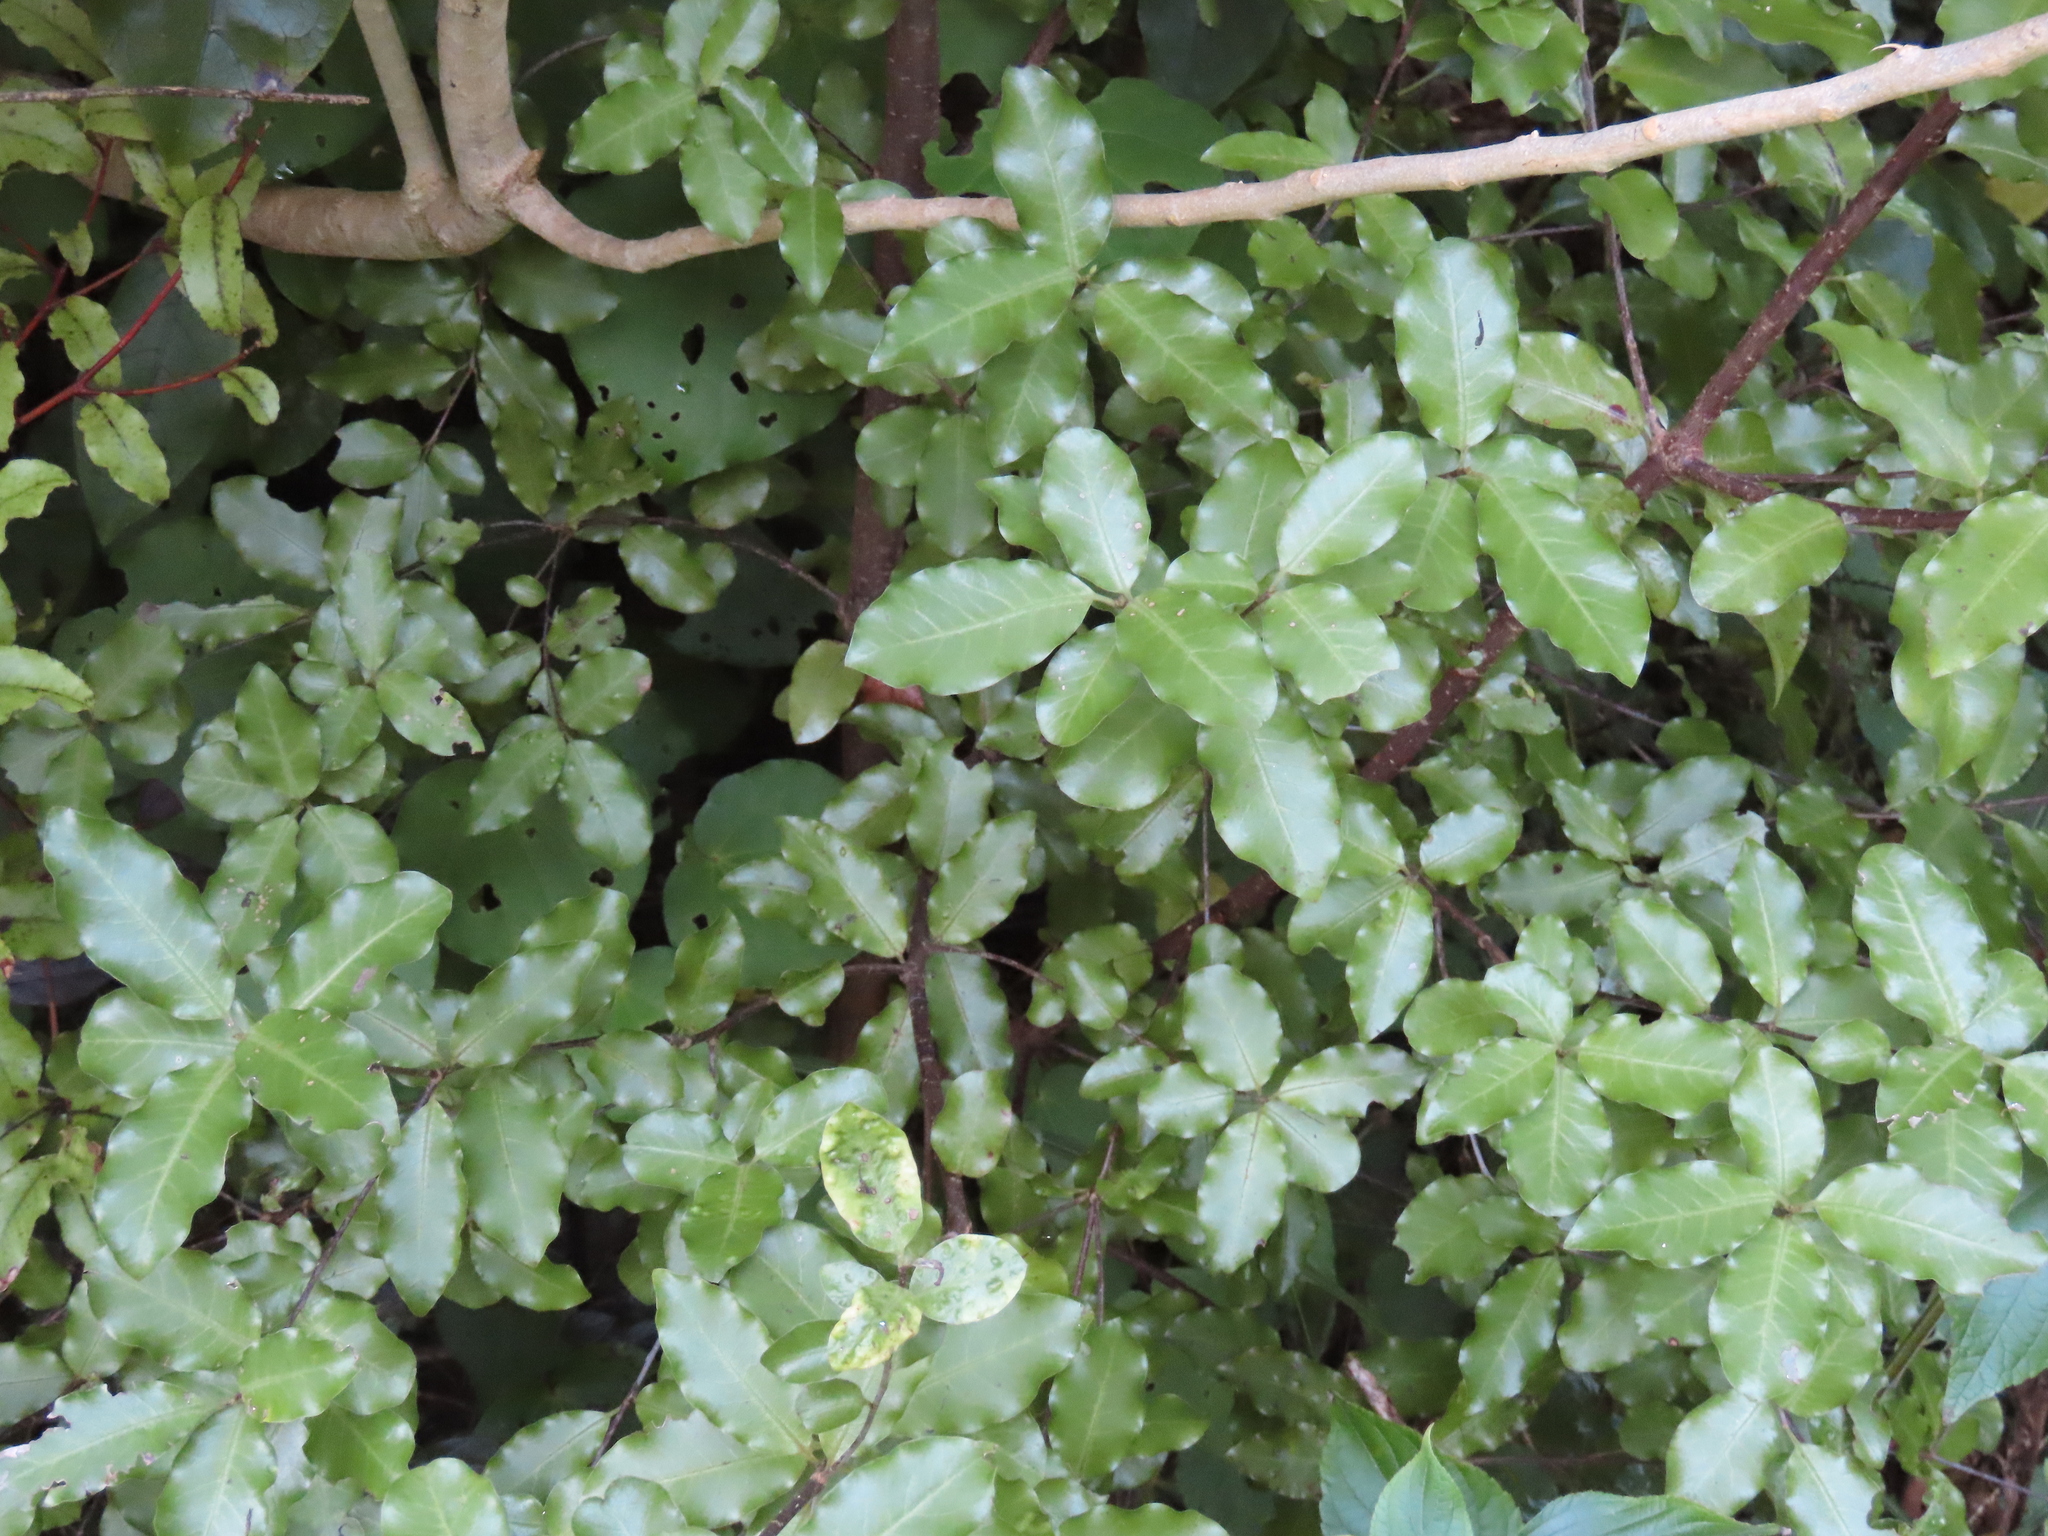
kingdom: Plantae
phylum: Tracheophyta
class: Magnoliopsida
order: Apiales
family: Pittosporaceae
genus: Pittosporum
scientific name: Pittosporum tenuifolium
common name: Kohuhu
